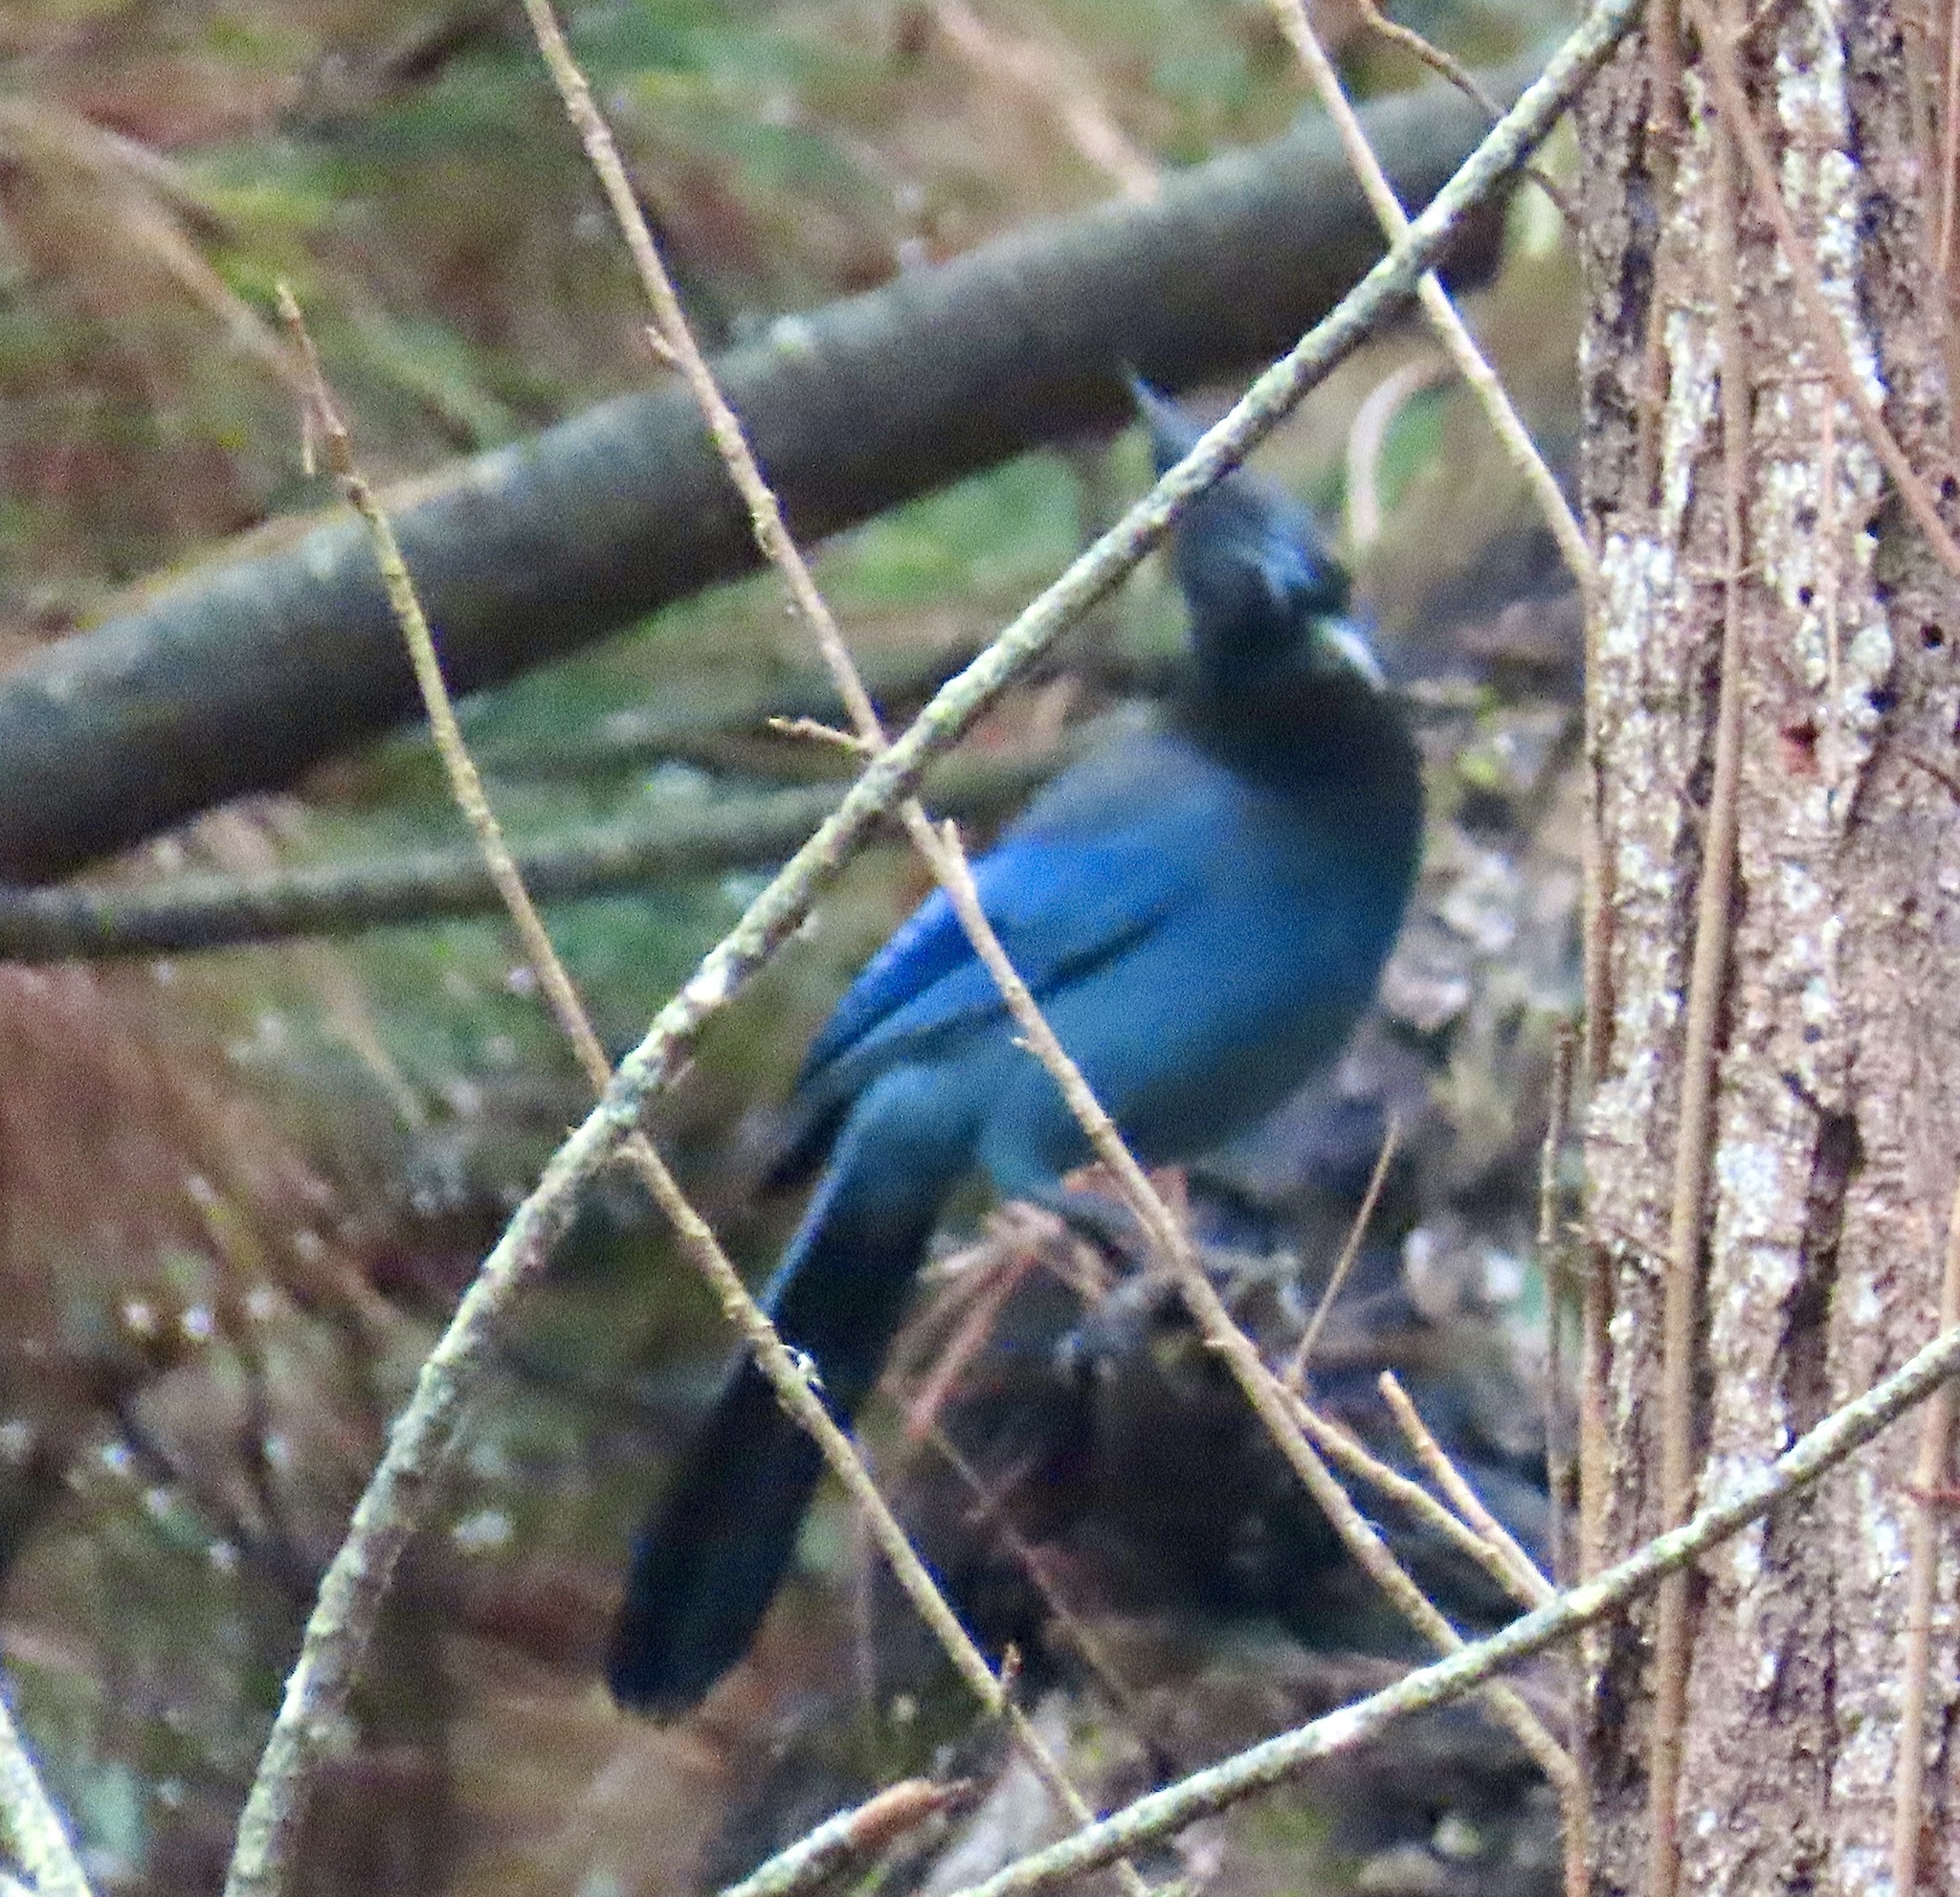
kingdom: Animalia
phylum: Chordata
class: Aves
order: Passeriformes
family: Corvidae
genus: Cyanocitta
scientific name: Cyanocitta stelleri
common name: Steller's jay
